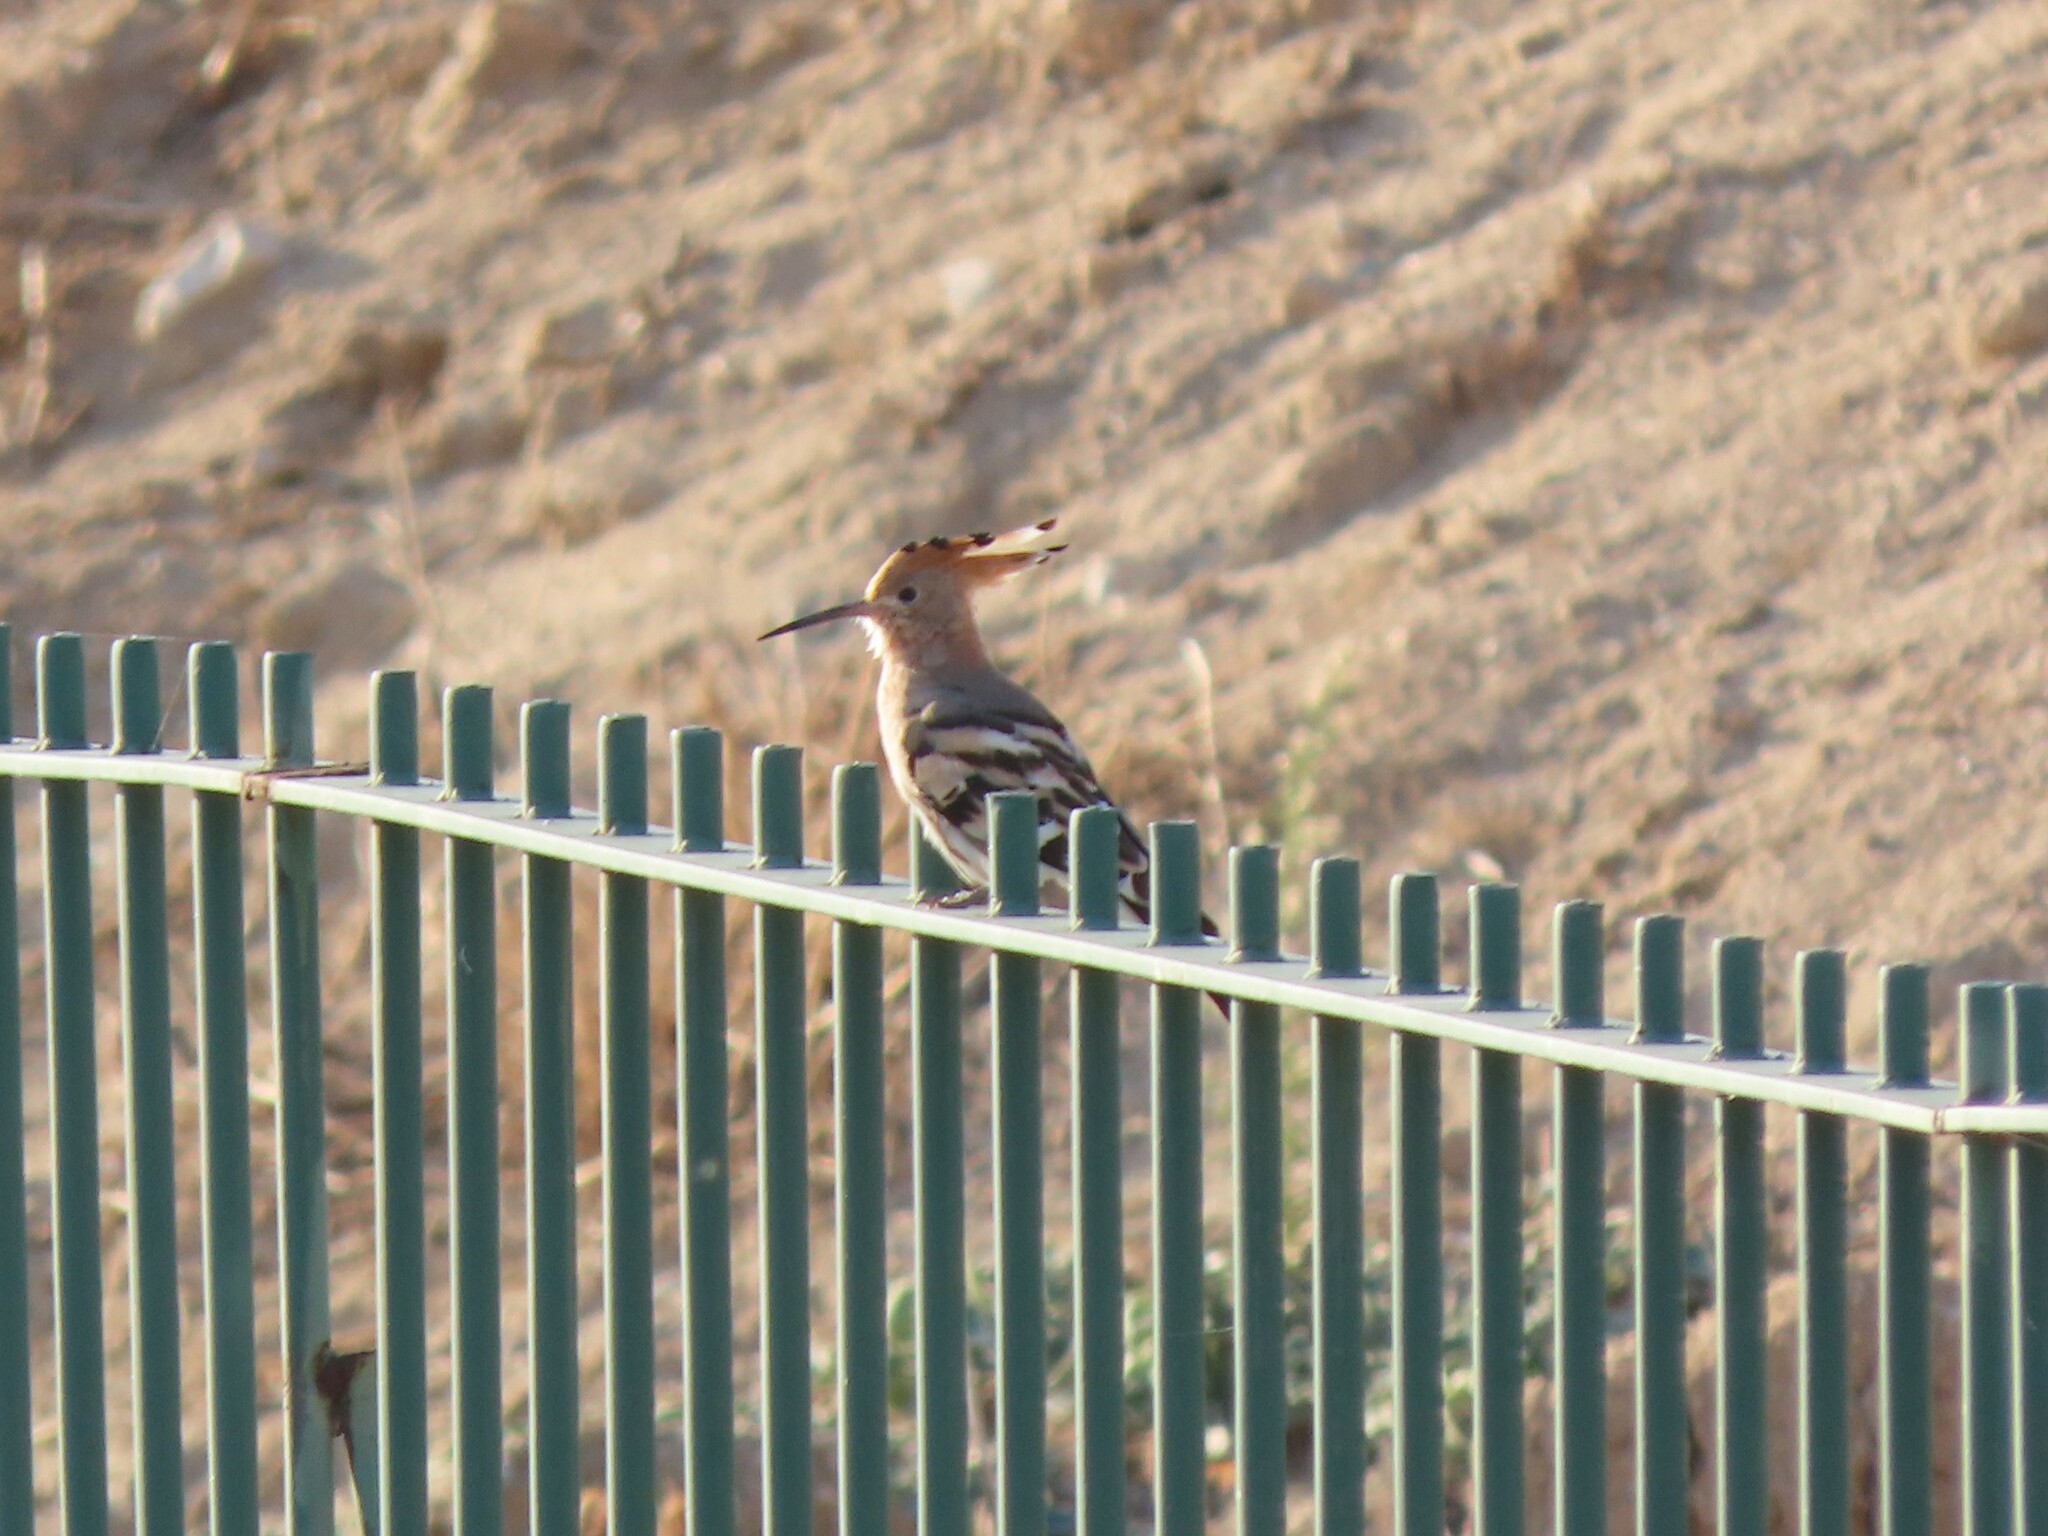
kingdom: Animalia
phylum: Chordata
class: Aves
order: Bucerotiformes
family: Upupidae
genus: Upupa
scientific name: Upupa epops
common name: Eurasian hoopoe
